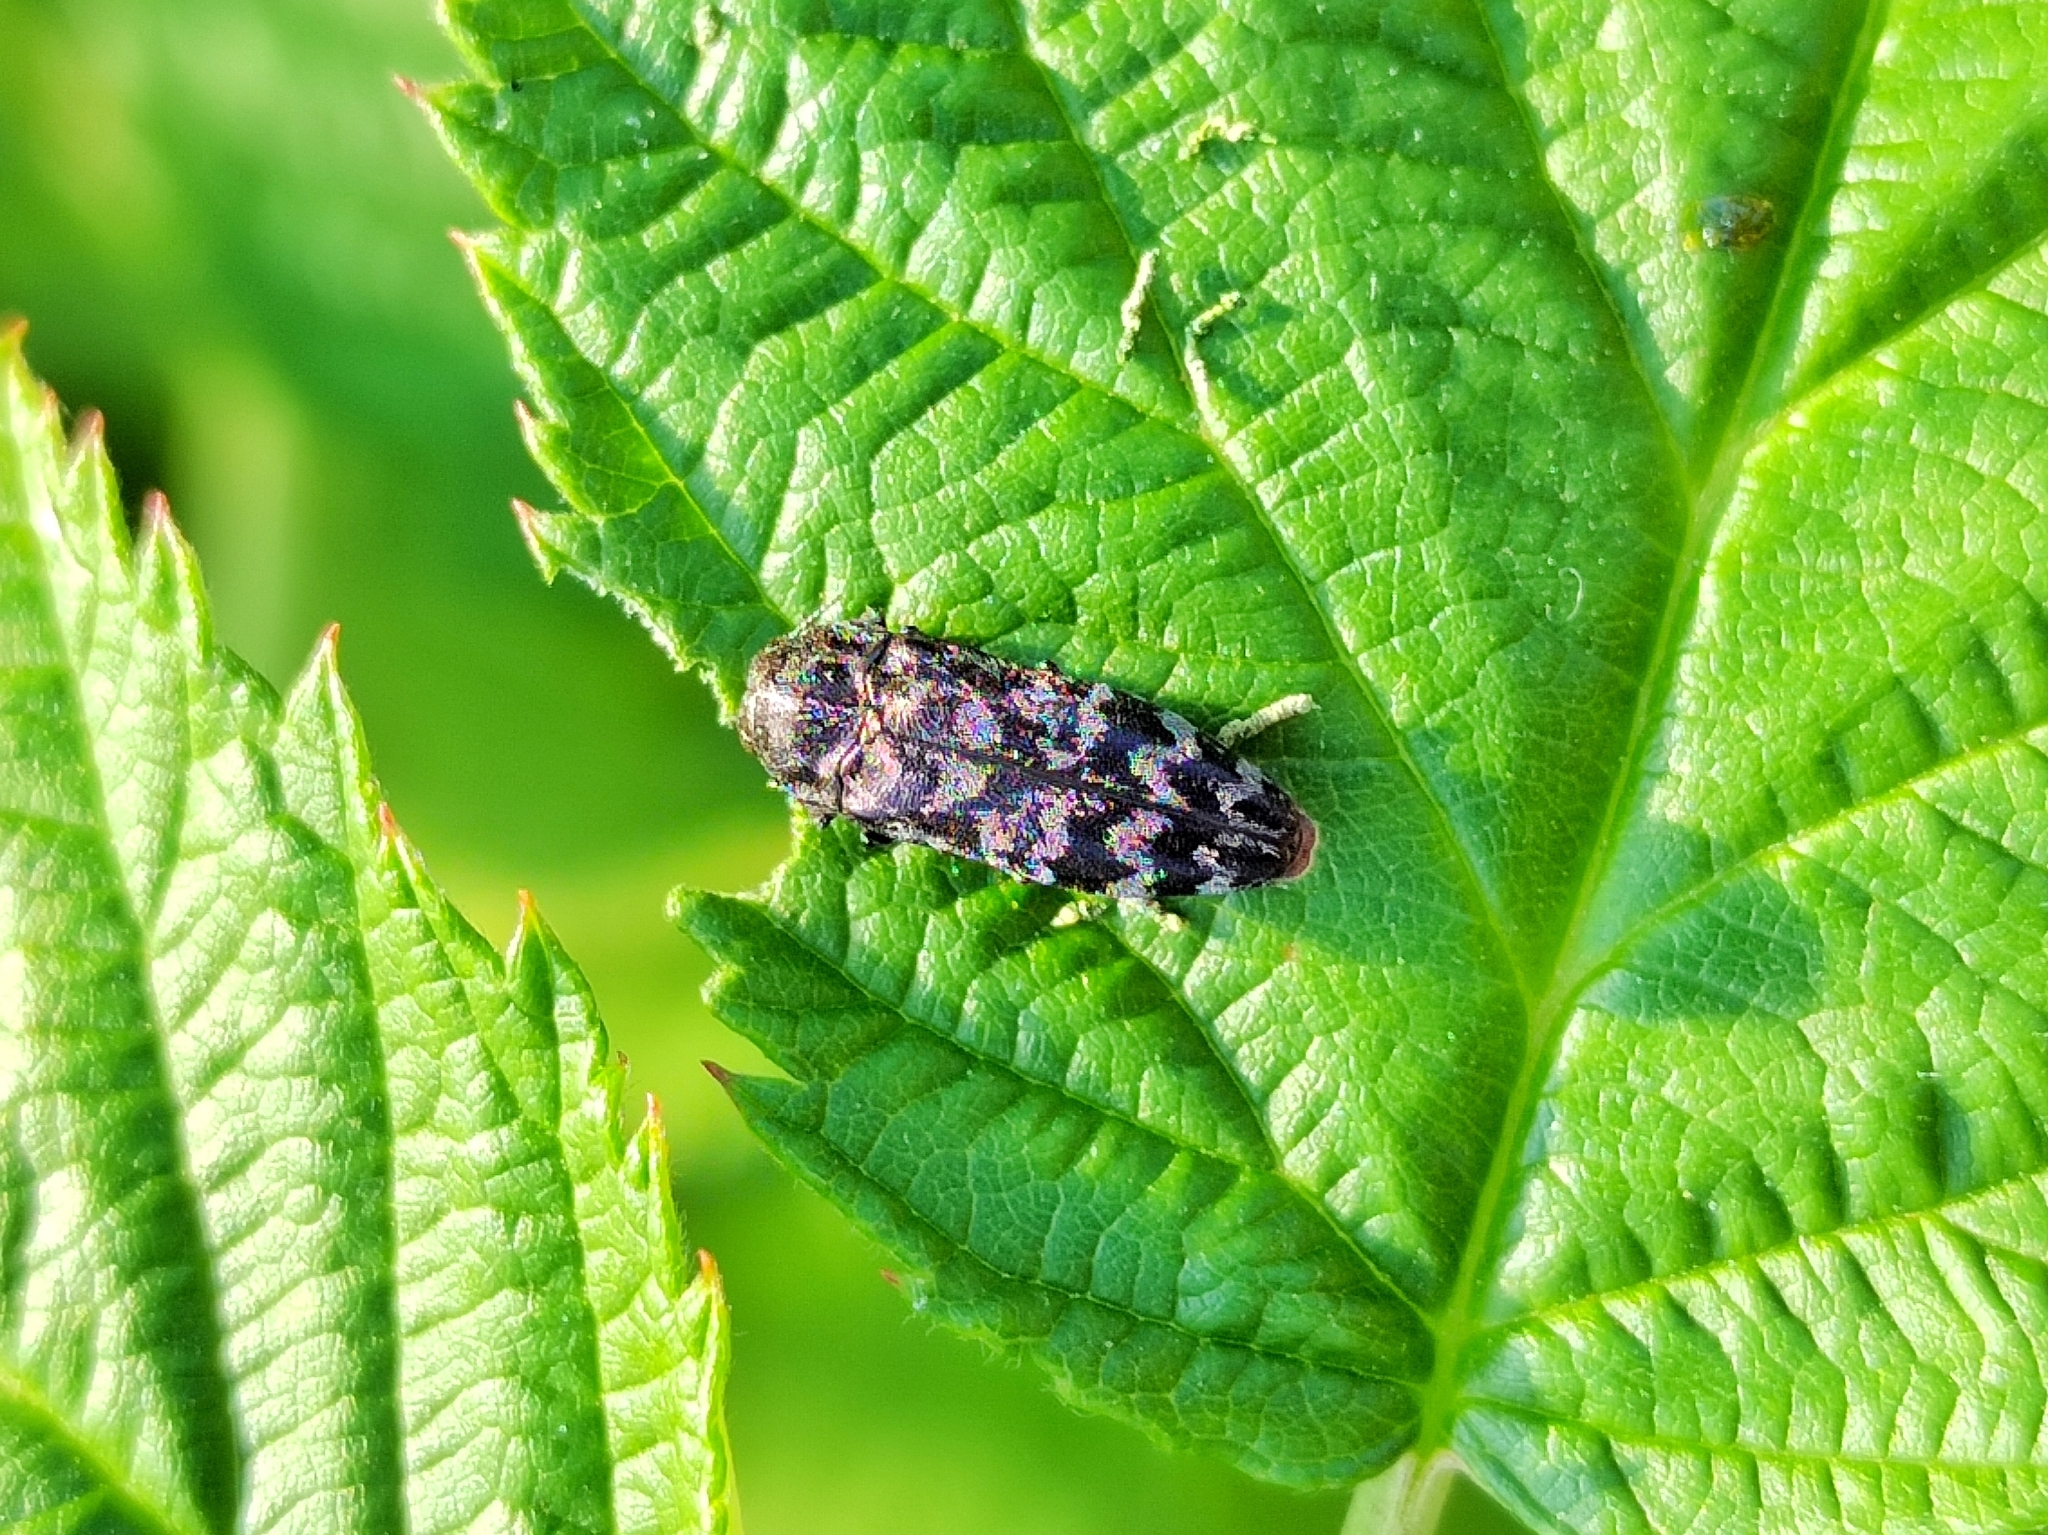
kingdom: Animalia
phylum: Arthropoda
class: Insecta
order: Coleoptera
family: Buprestidae
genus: Coraebus
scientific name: Coraebus rubi
